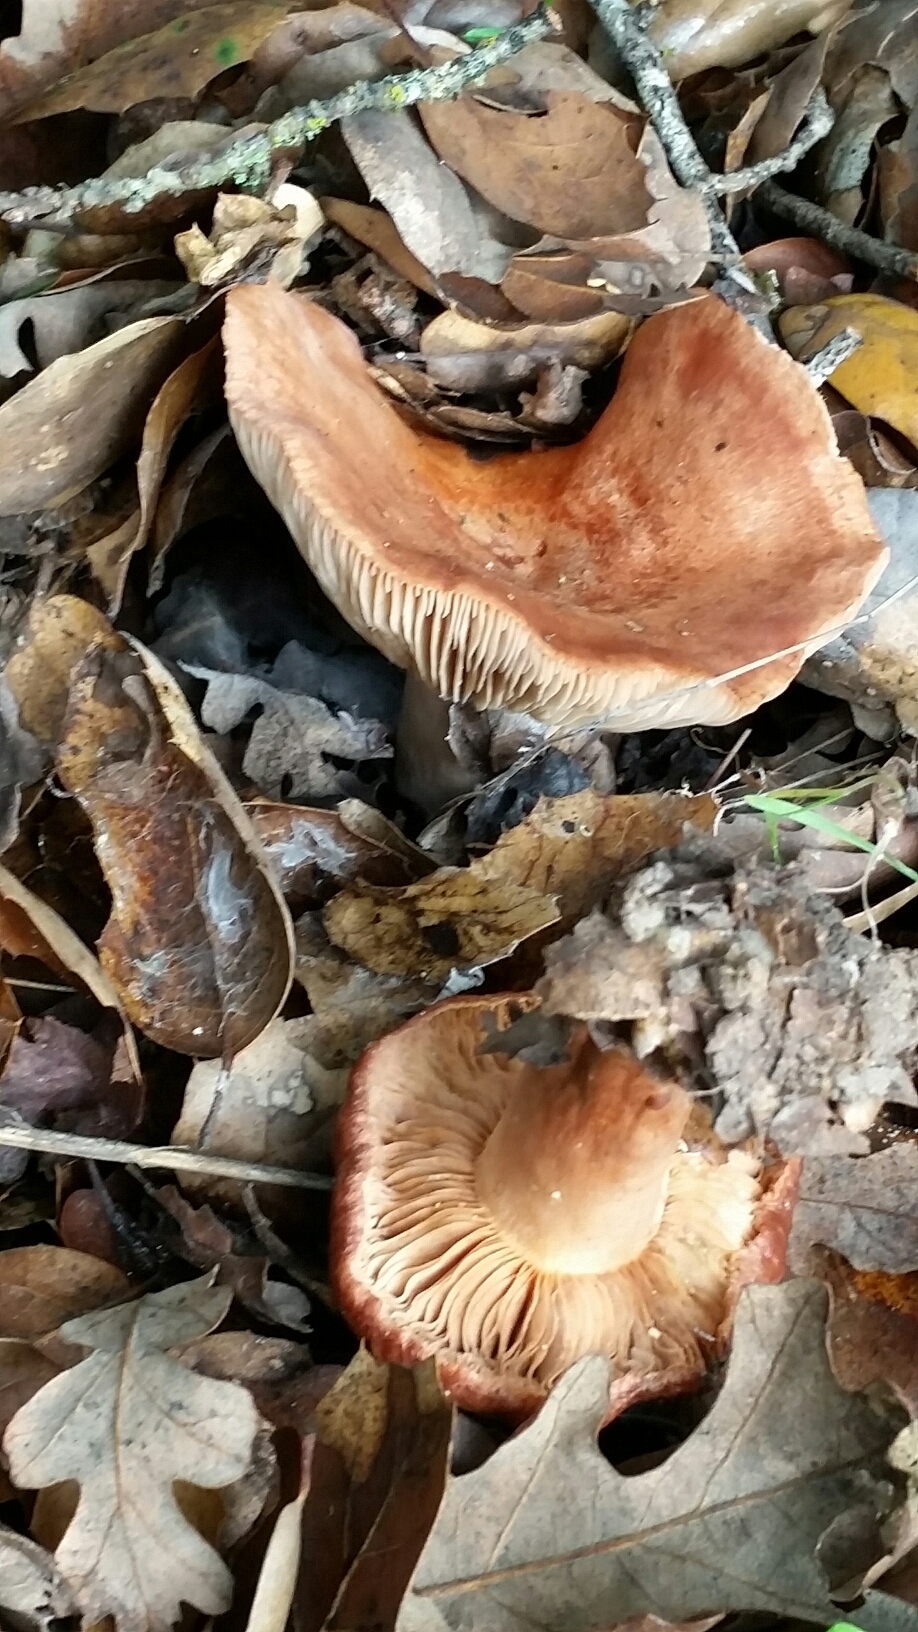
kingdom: Fungi
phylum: Basidiomycota
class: Agaricomycetes
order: Russulales
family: Russulaceae
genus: Lactarius
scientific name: Lactarius xanthogalactus
